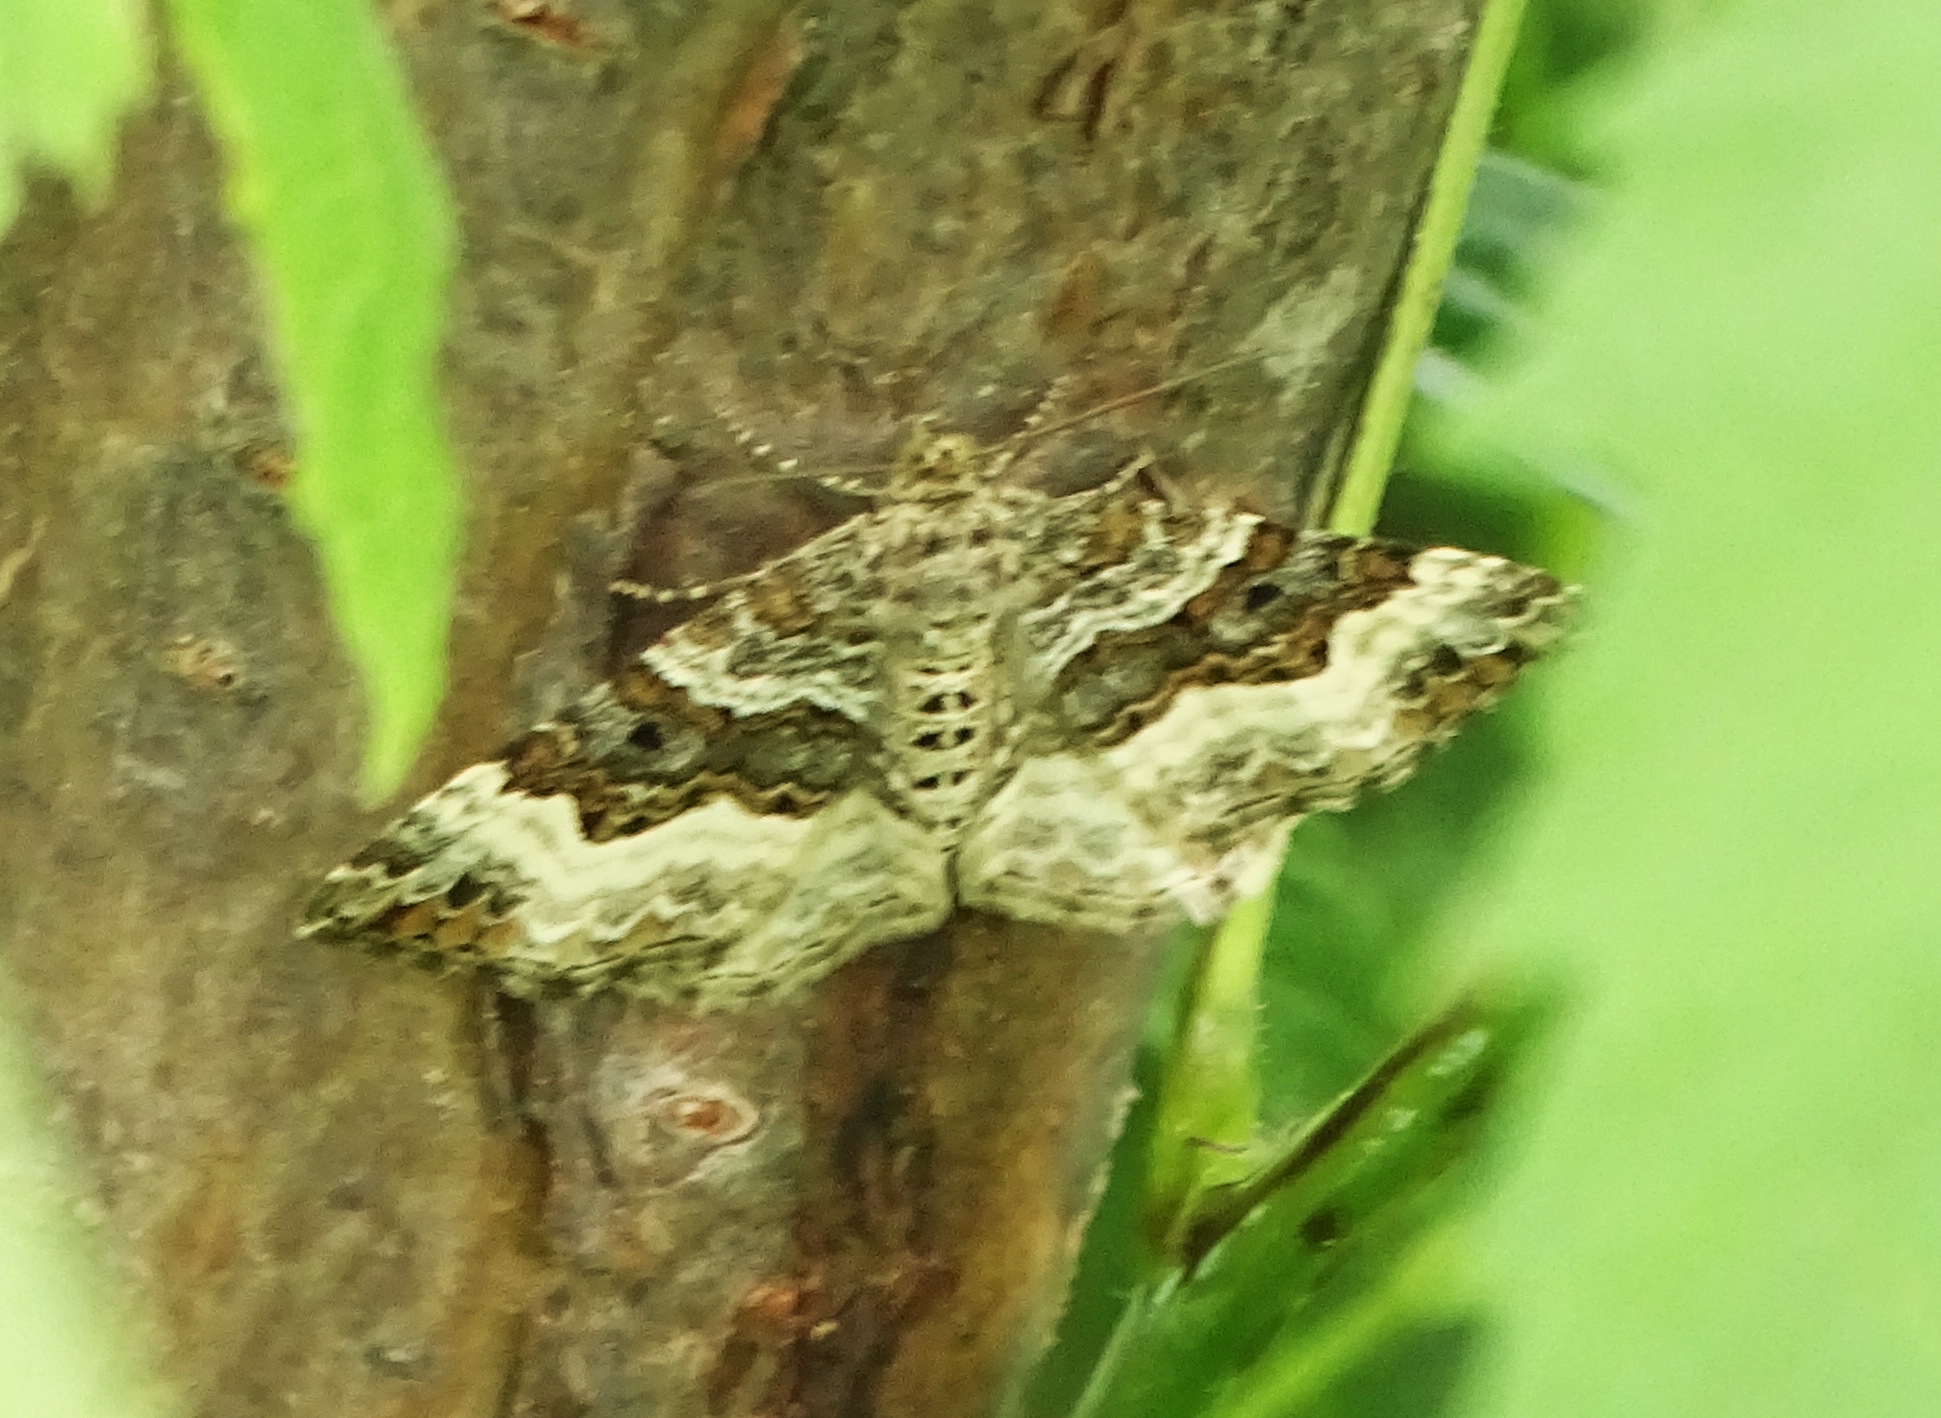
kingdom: Animalia
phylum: Arthropoda
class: Insecta
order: Lepidoptera
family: Geometridae
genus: Epirrhoe
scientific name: Epirrhoe alternata
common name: Common carpet
